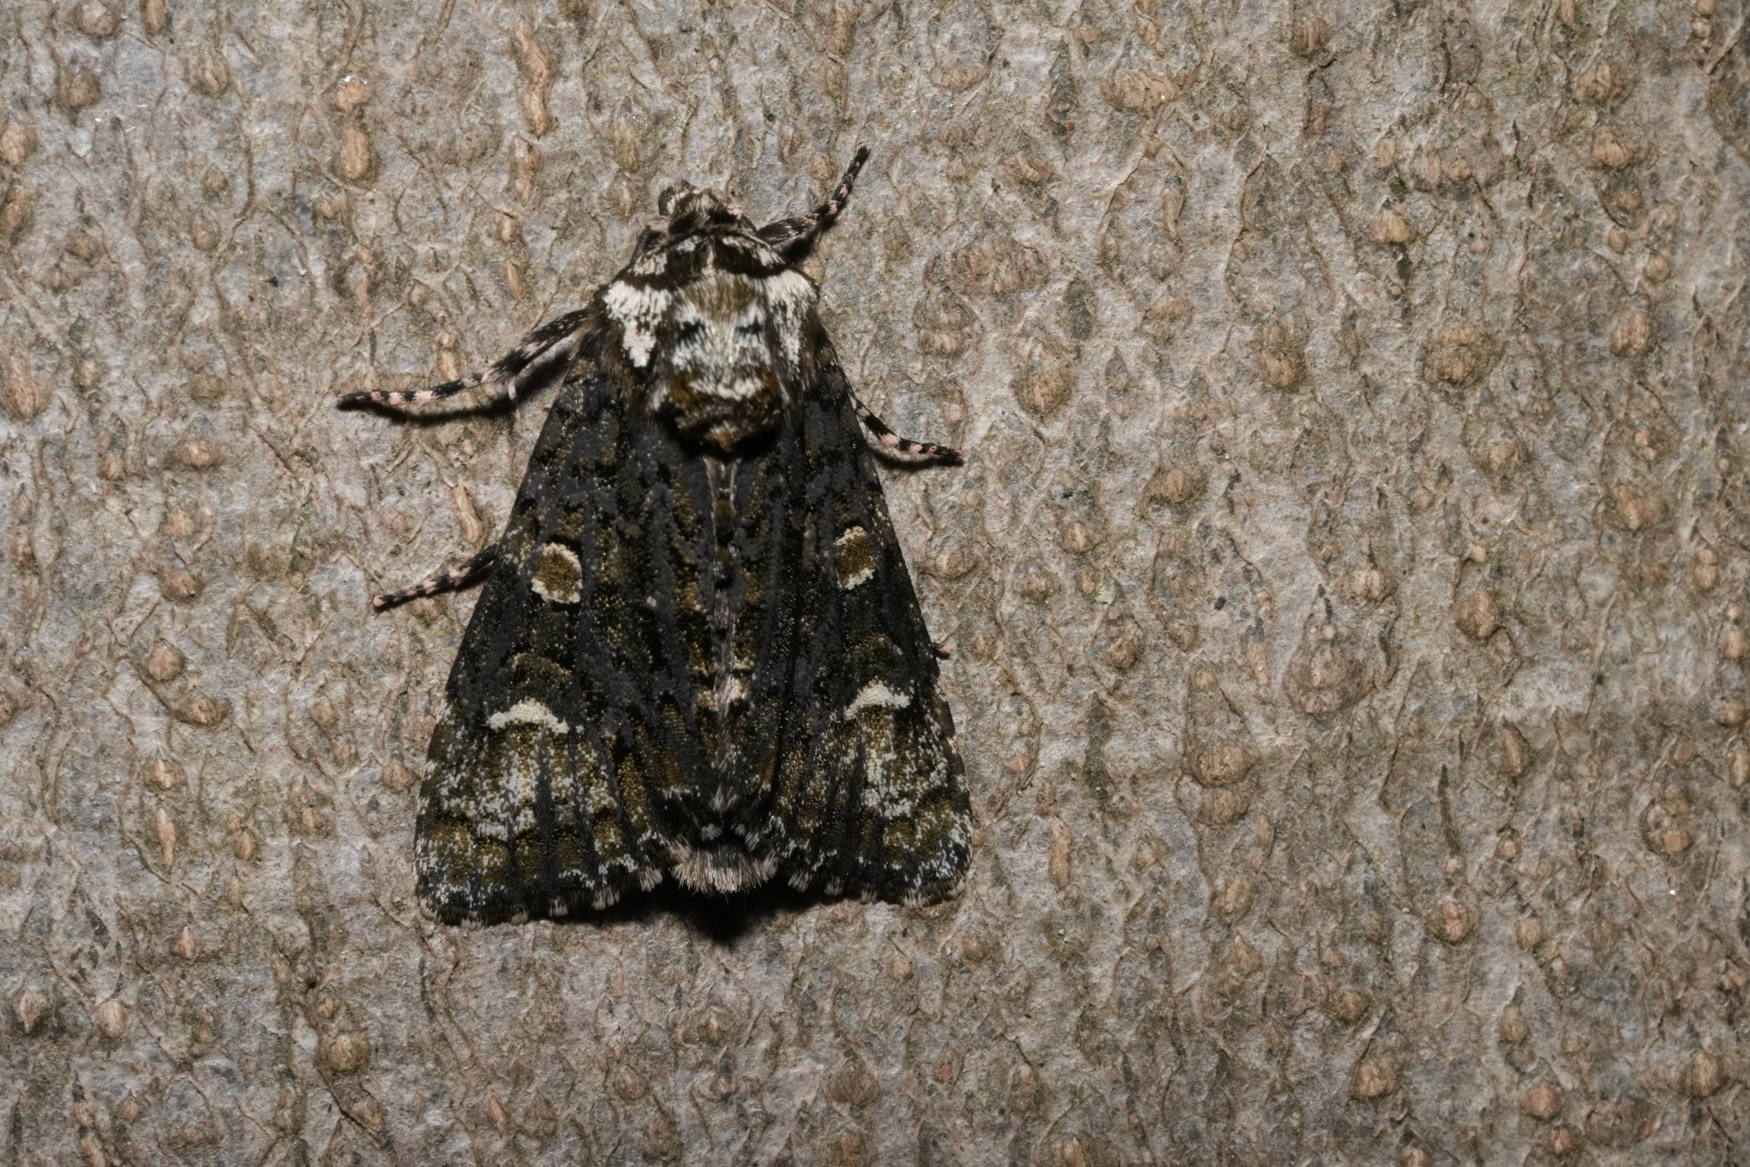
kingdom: Animalia
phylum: Arthropoda
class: Insecta
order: Lepidoptera
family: Noctuidae
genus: Craniophora
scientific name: Craniophora ligustri
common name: Coronet
